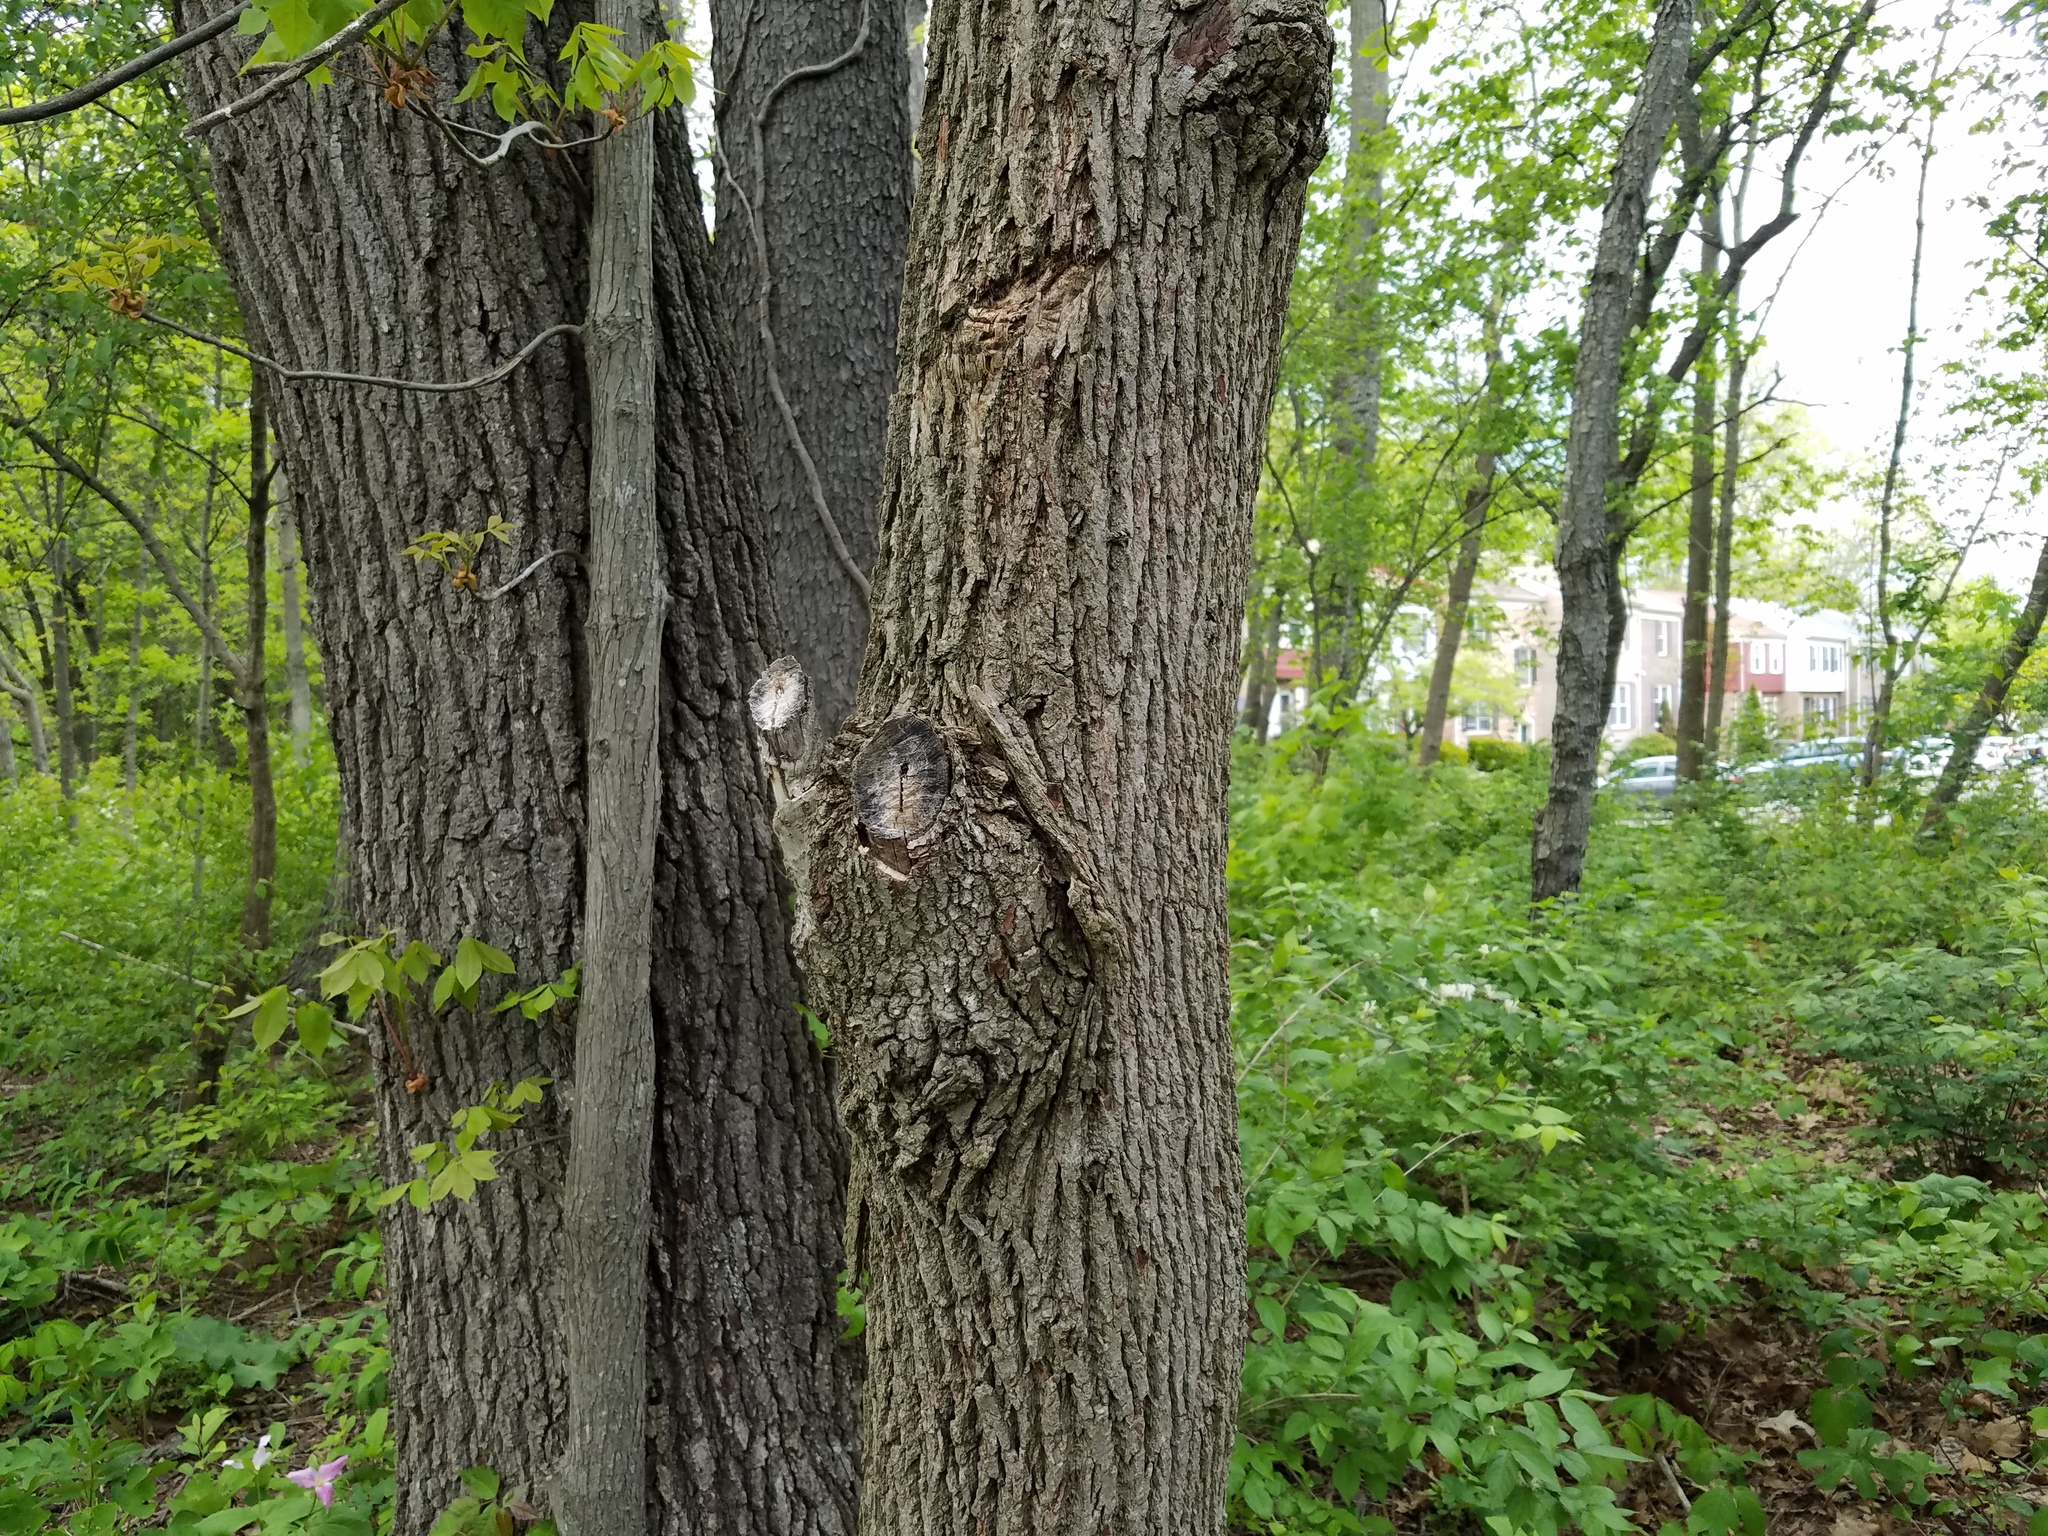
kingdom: Plantae
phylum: Tracheophyta
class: Magnoliopsida
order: Magnoliales
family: Magnoliaceae
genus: Magnolia
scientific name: Magnolia acuminata
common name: Cucumber magnolia
